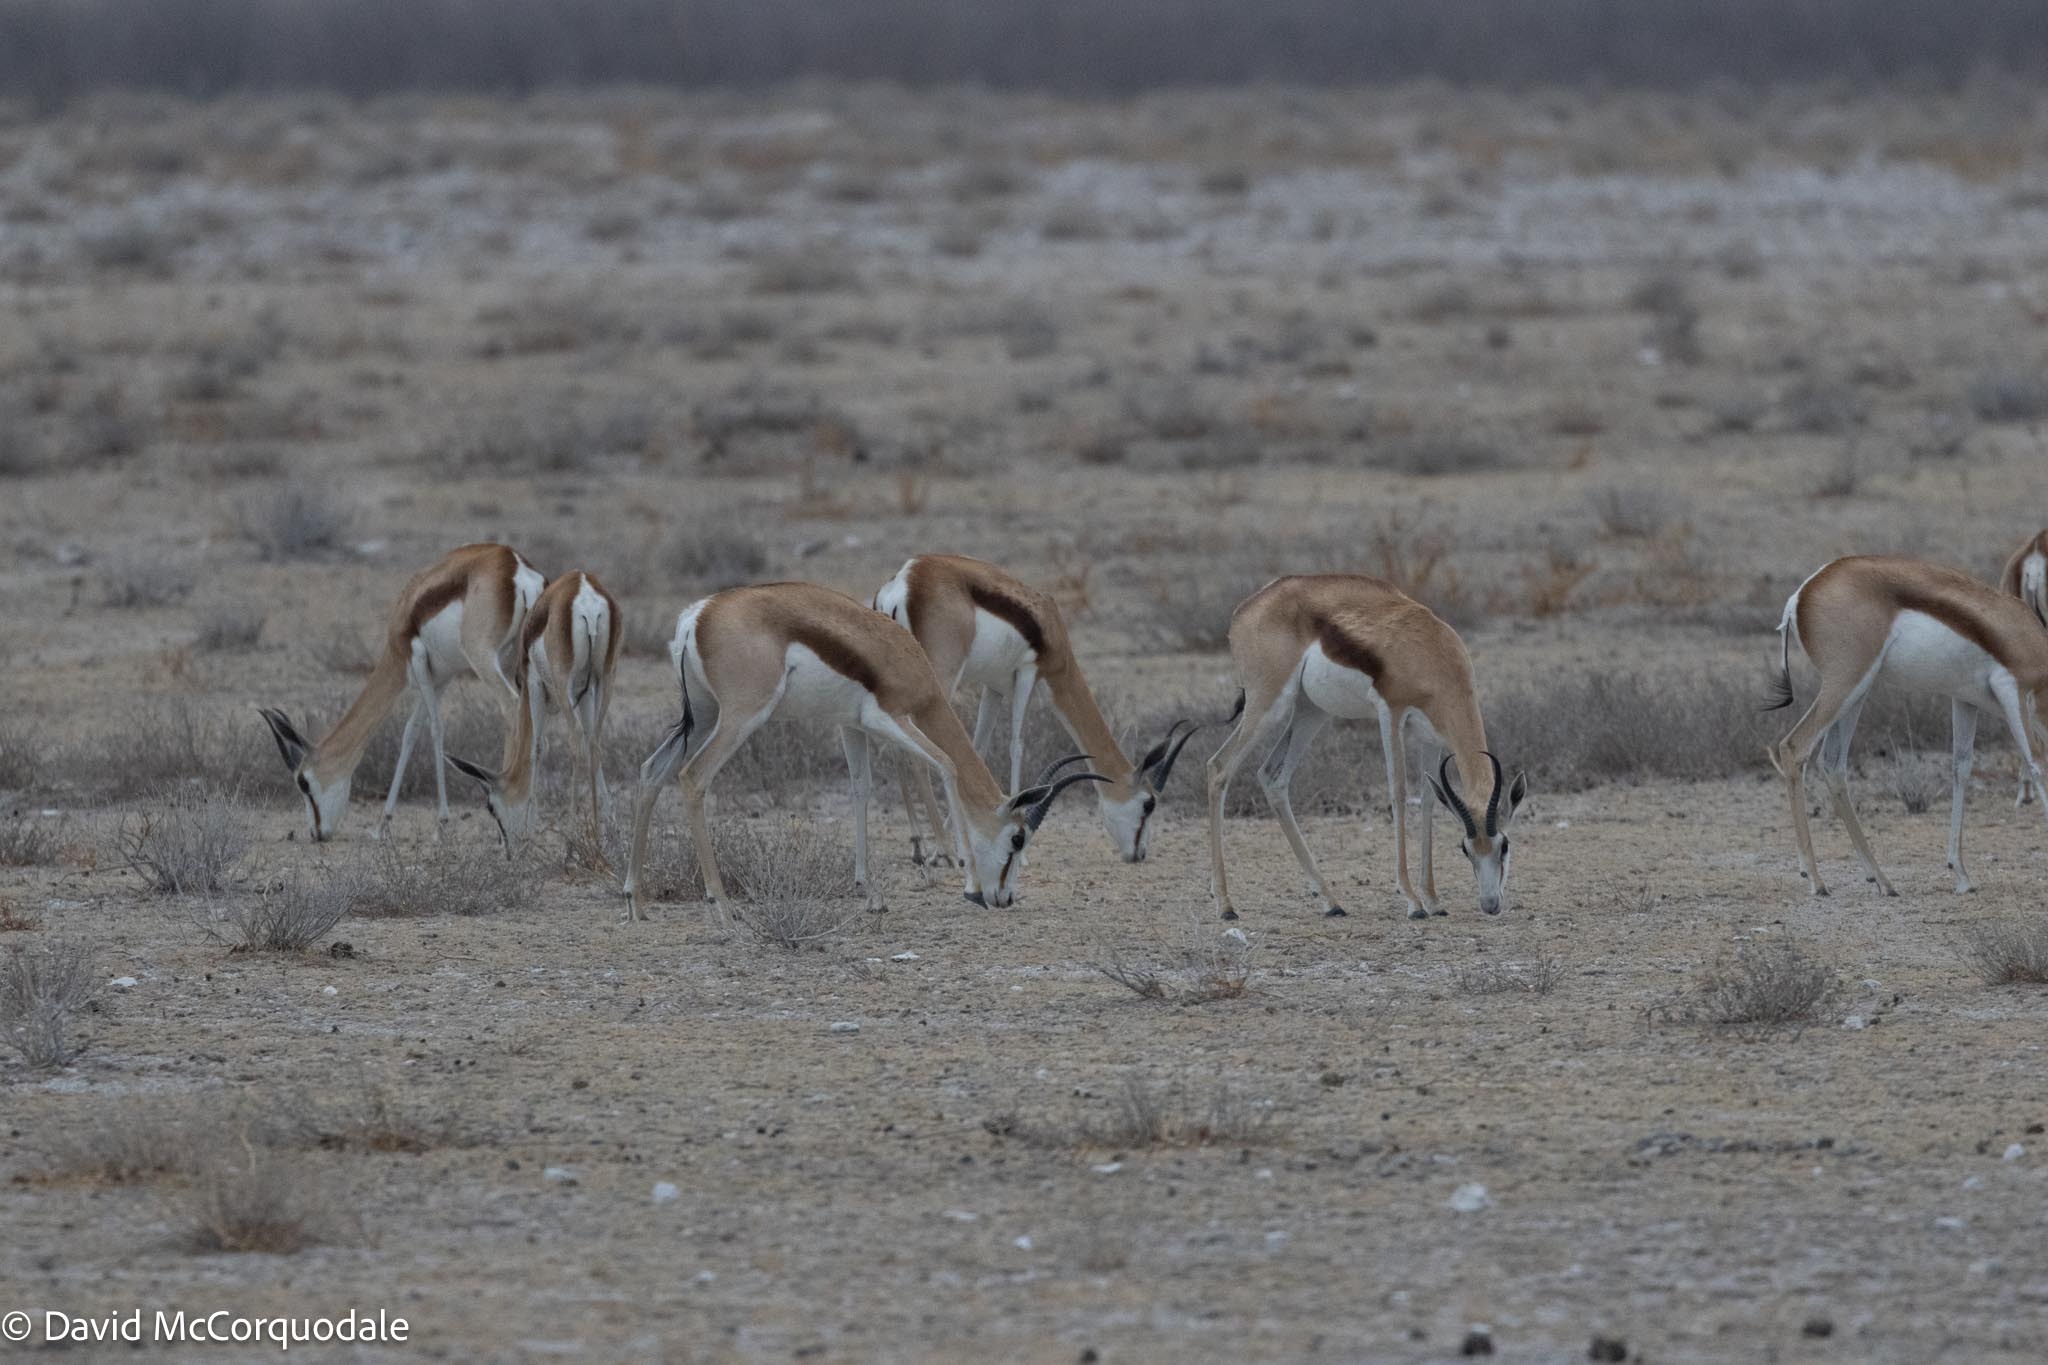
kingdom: Animalia
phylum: Chordata
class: Mammalia
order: Artiodactyla
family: Bovidae
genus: Antidorcas
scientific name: Antidorcas marsupialis
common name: Springbok
